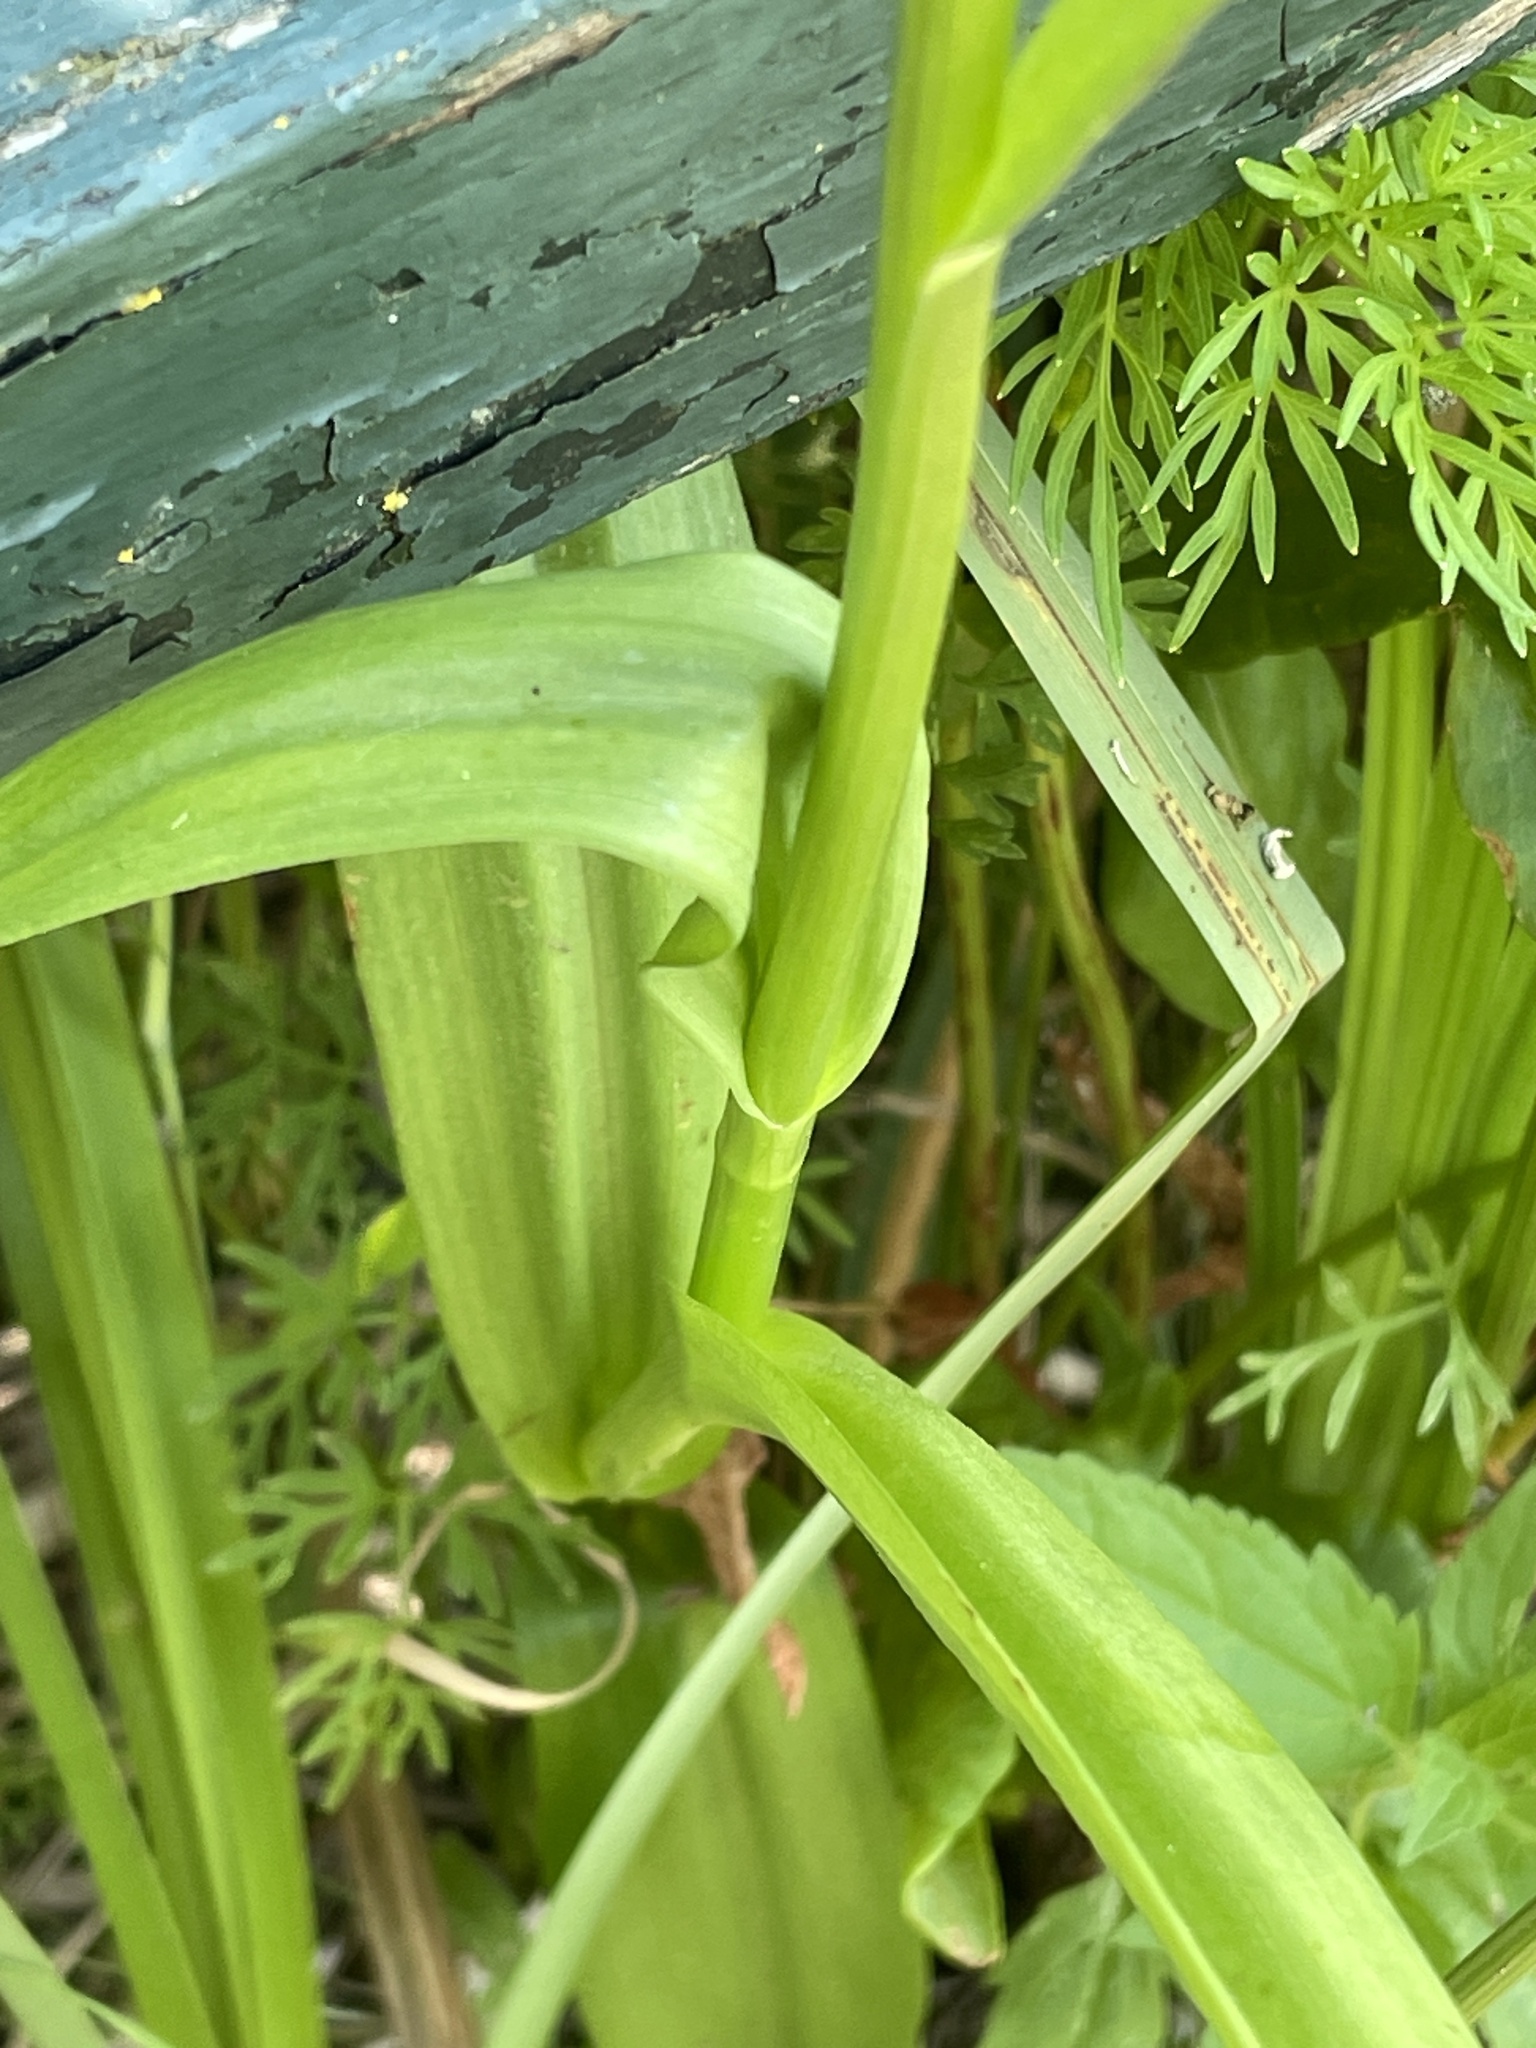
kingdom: Plantae
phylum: Tracheophyta
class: Liliopsida
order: Asparagales
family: Orchidaceae
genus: Dactylorhiza
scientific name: Dactylorhiza majalis
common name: Marsh orchid
